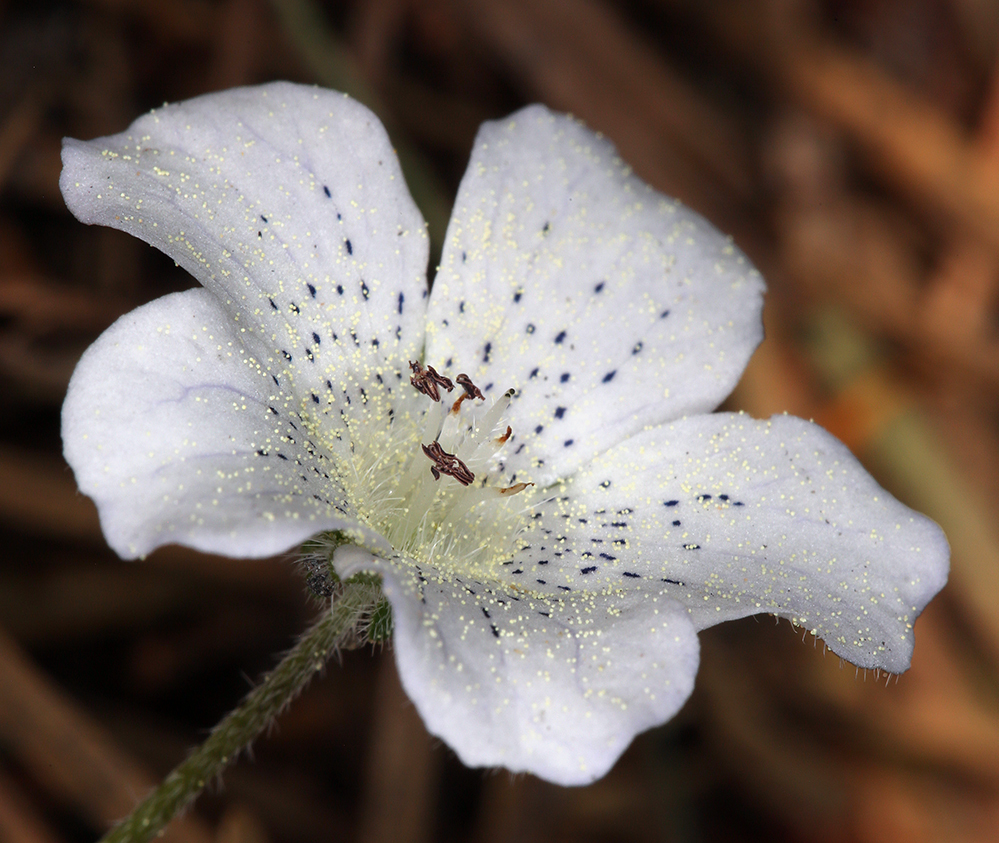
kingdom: Plantae
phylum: Tracheophyta
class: Magnoliopsida
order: Boraginales
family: Hydrophyllaceae
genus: Nemophila
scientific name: Nemophila menziesii
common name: Baby's-blue-eyes
